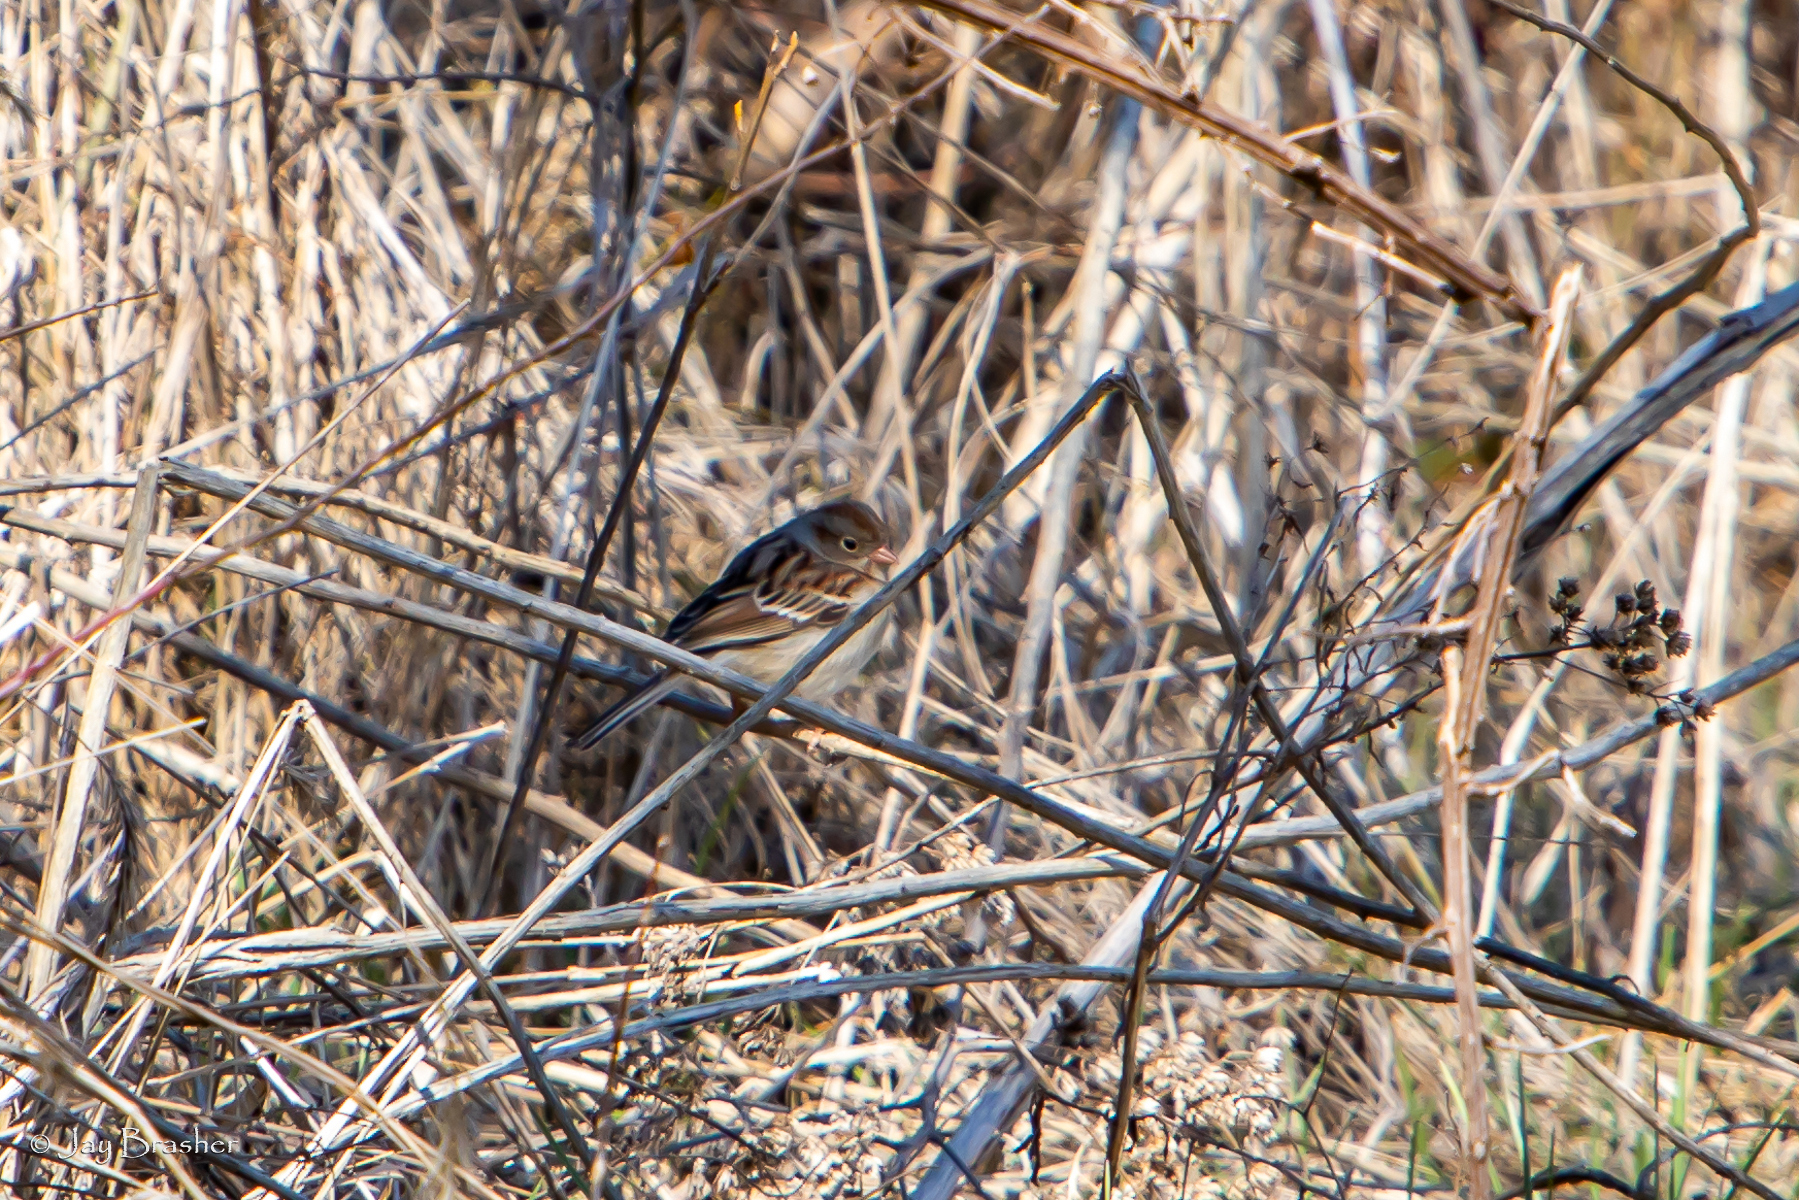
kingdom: Animalia
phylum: Chordata
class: Aves
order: Passeriformes
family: Passerellidae
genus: Spizella
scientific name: Spizella pusilla
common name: Field sparrow
